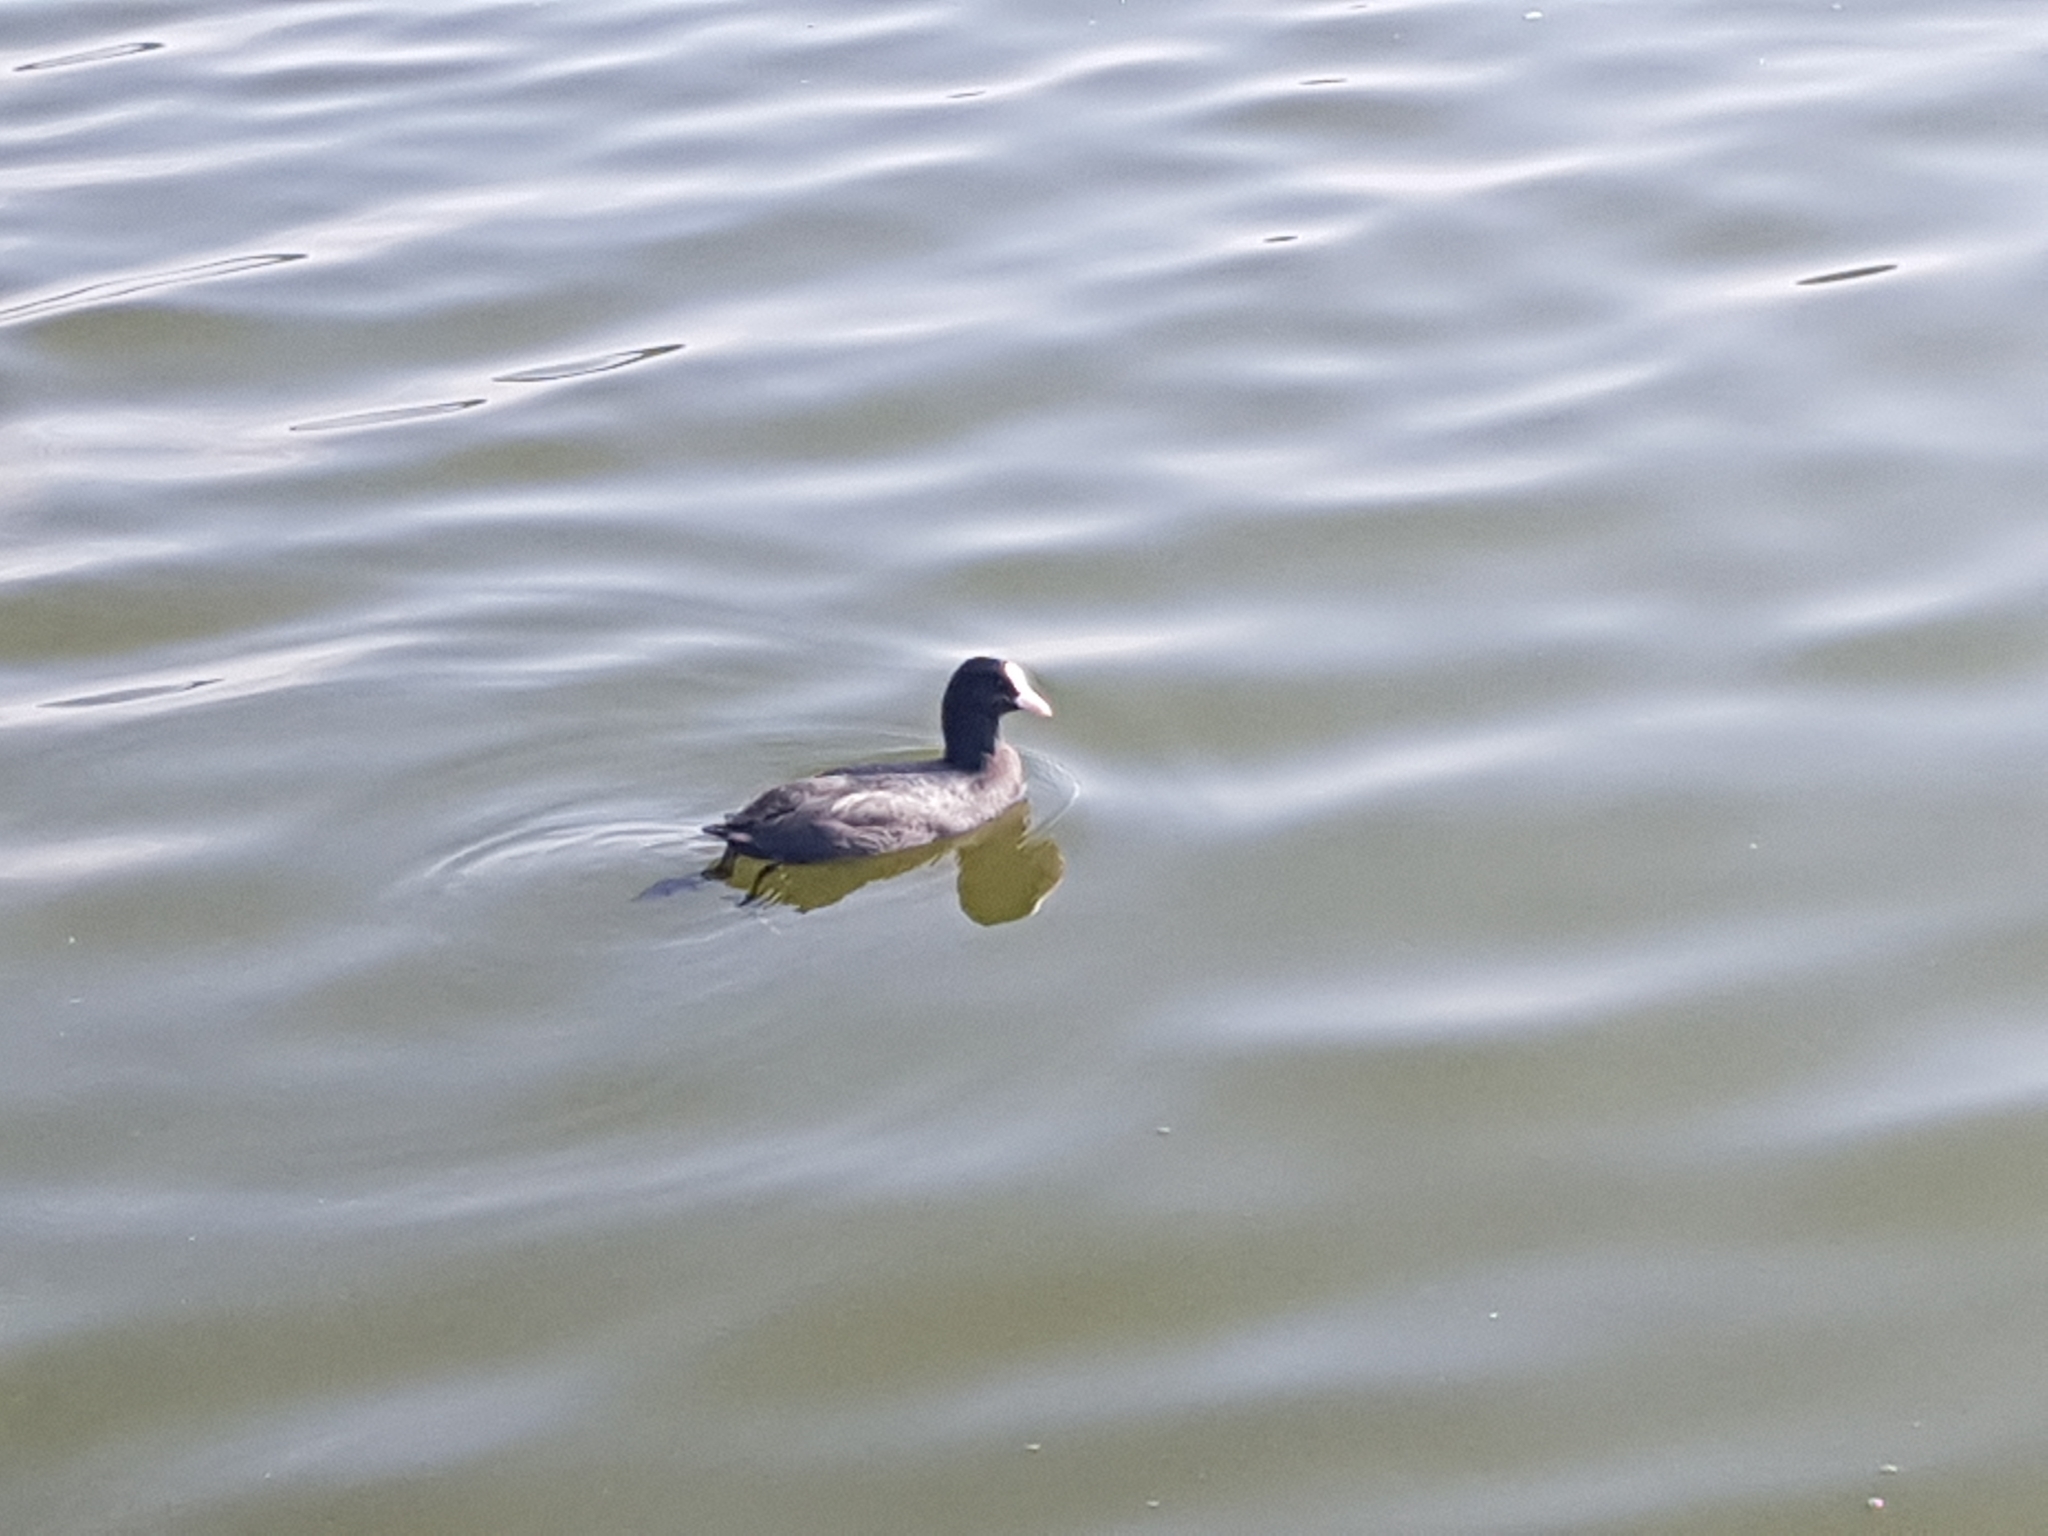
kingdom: Animalia
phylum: Chordata
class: Aves
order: Gruiformes
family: Rallidae
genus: Fulica
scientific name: Fulica atra
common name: Eurasian coot
